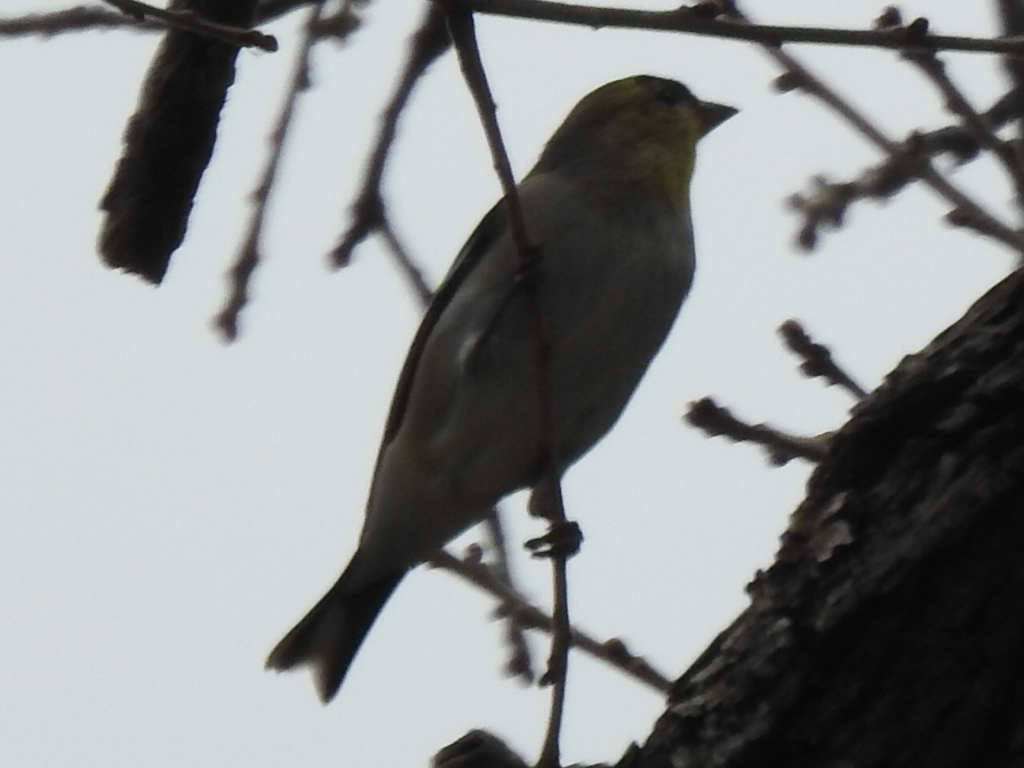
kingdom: Animalia
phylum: Chordata
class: Aves
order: Passeriformes
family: Fringillidae
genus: Spinus
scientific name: Spinus tristis
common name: American goldfinch
